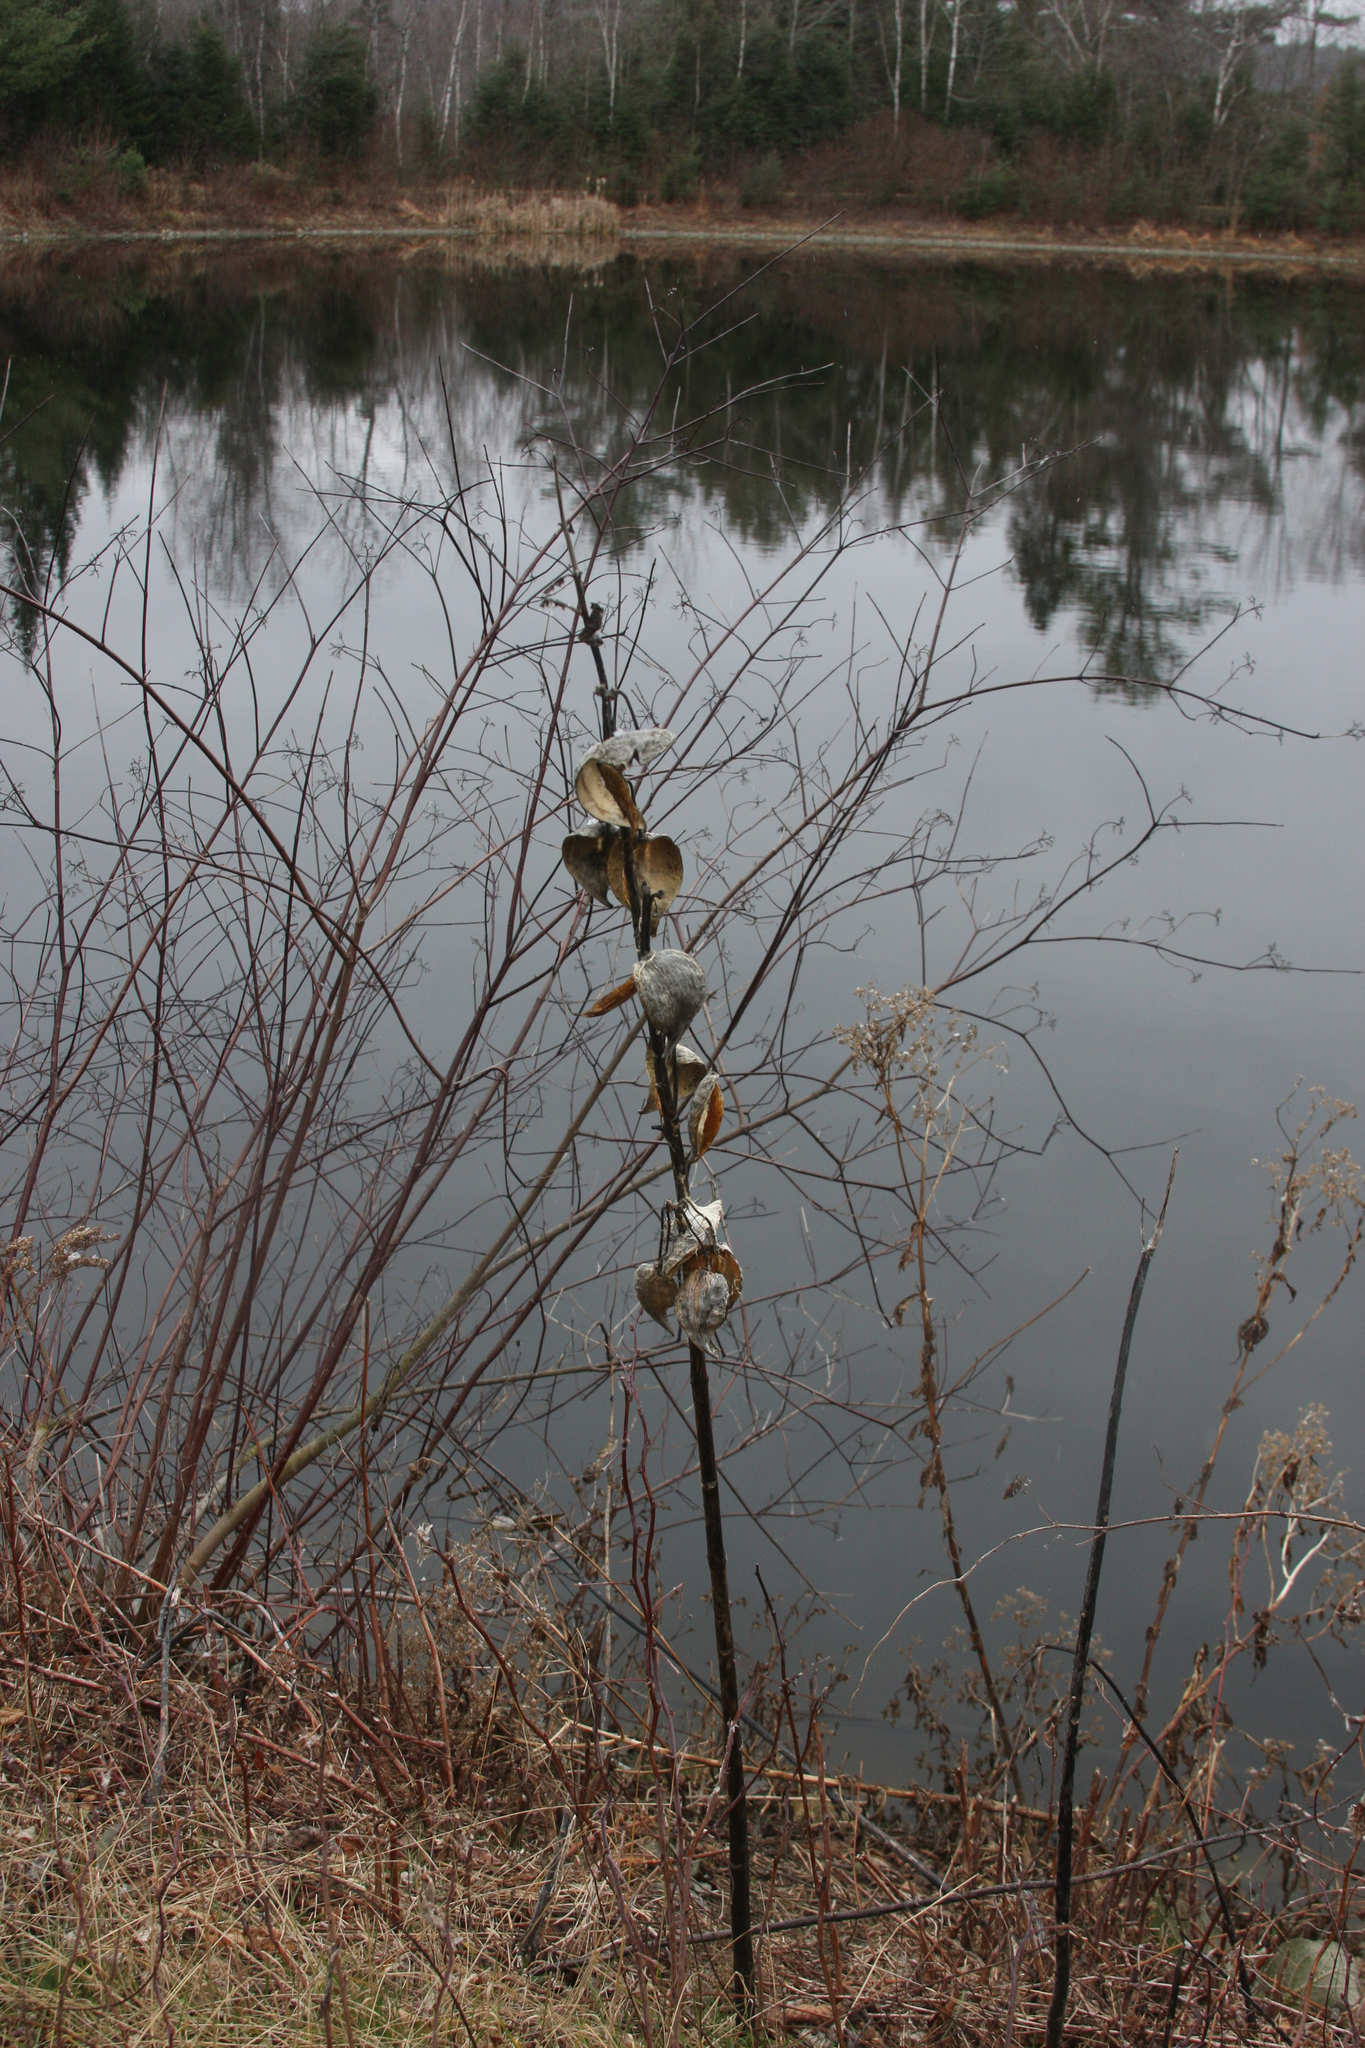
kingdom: Plantae
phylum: Tracheophyta
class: Magnoliopsida
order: Gentianales
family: Apocynaceae
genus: Asclepias
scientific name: Asclepias syriaca
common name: Common milkweed
